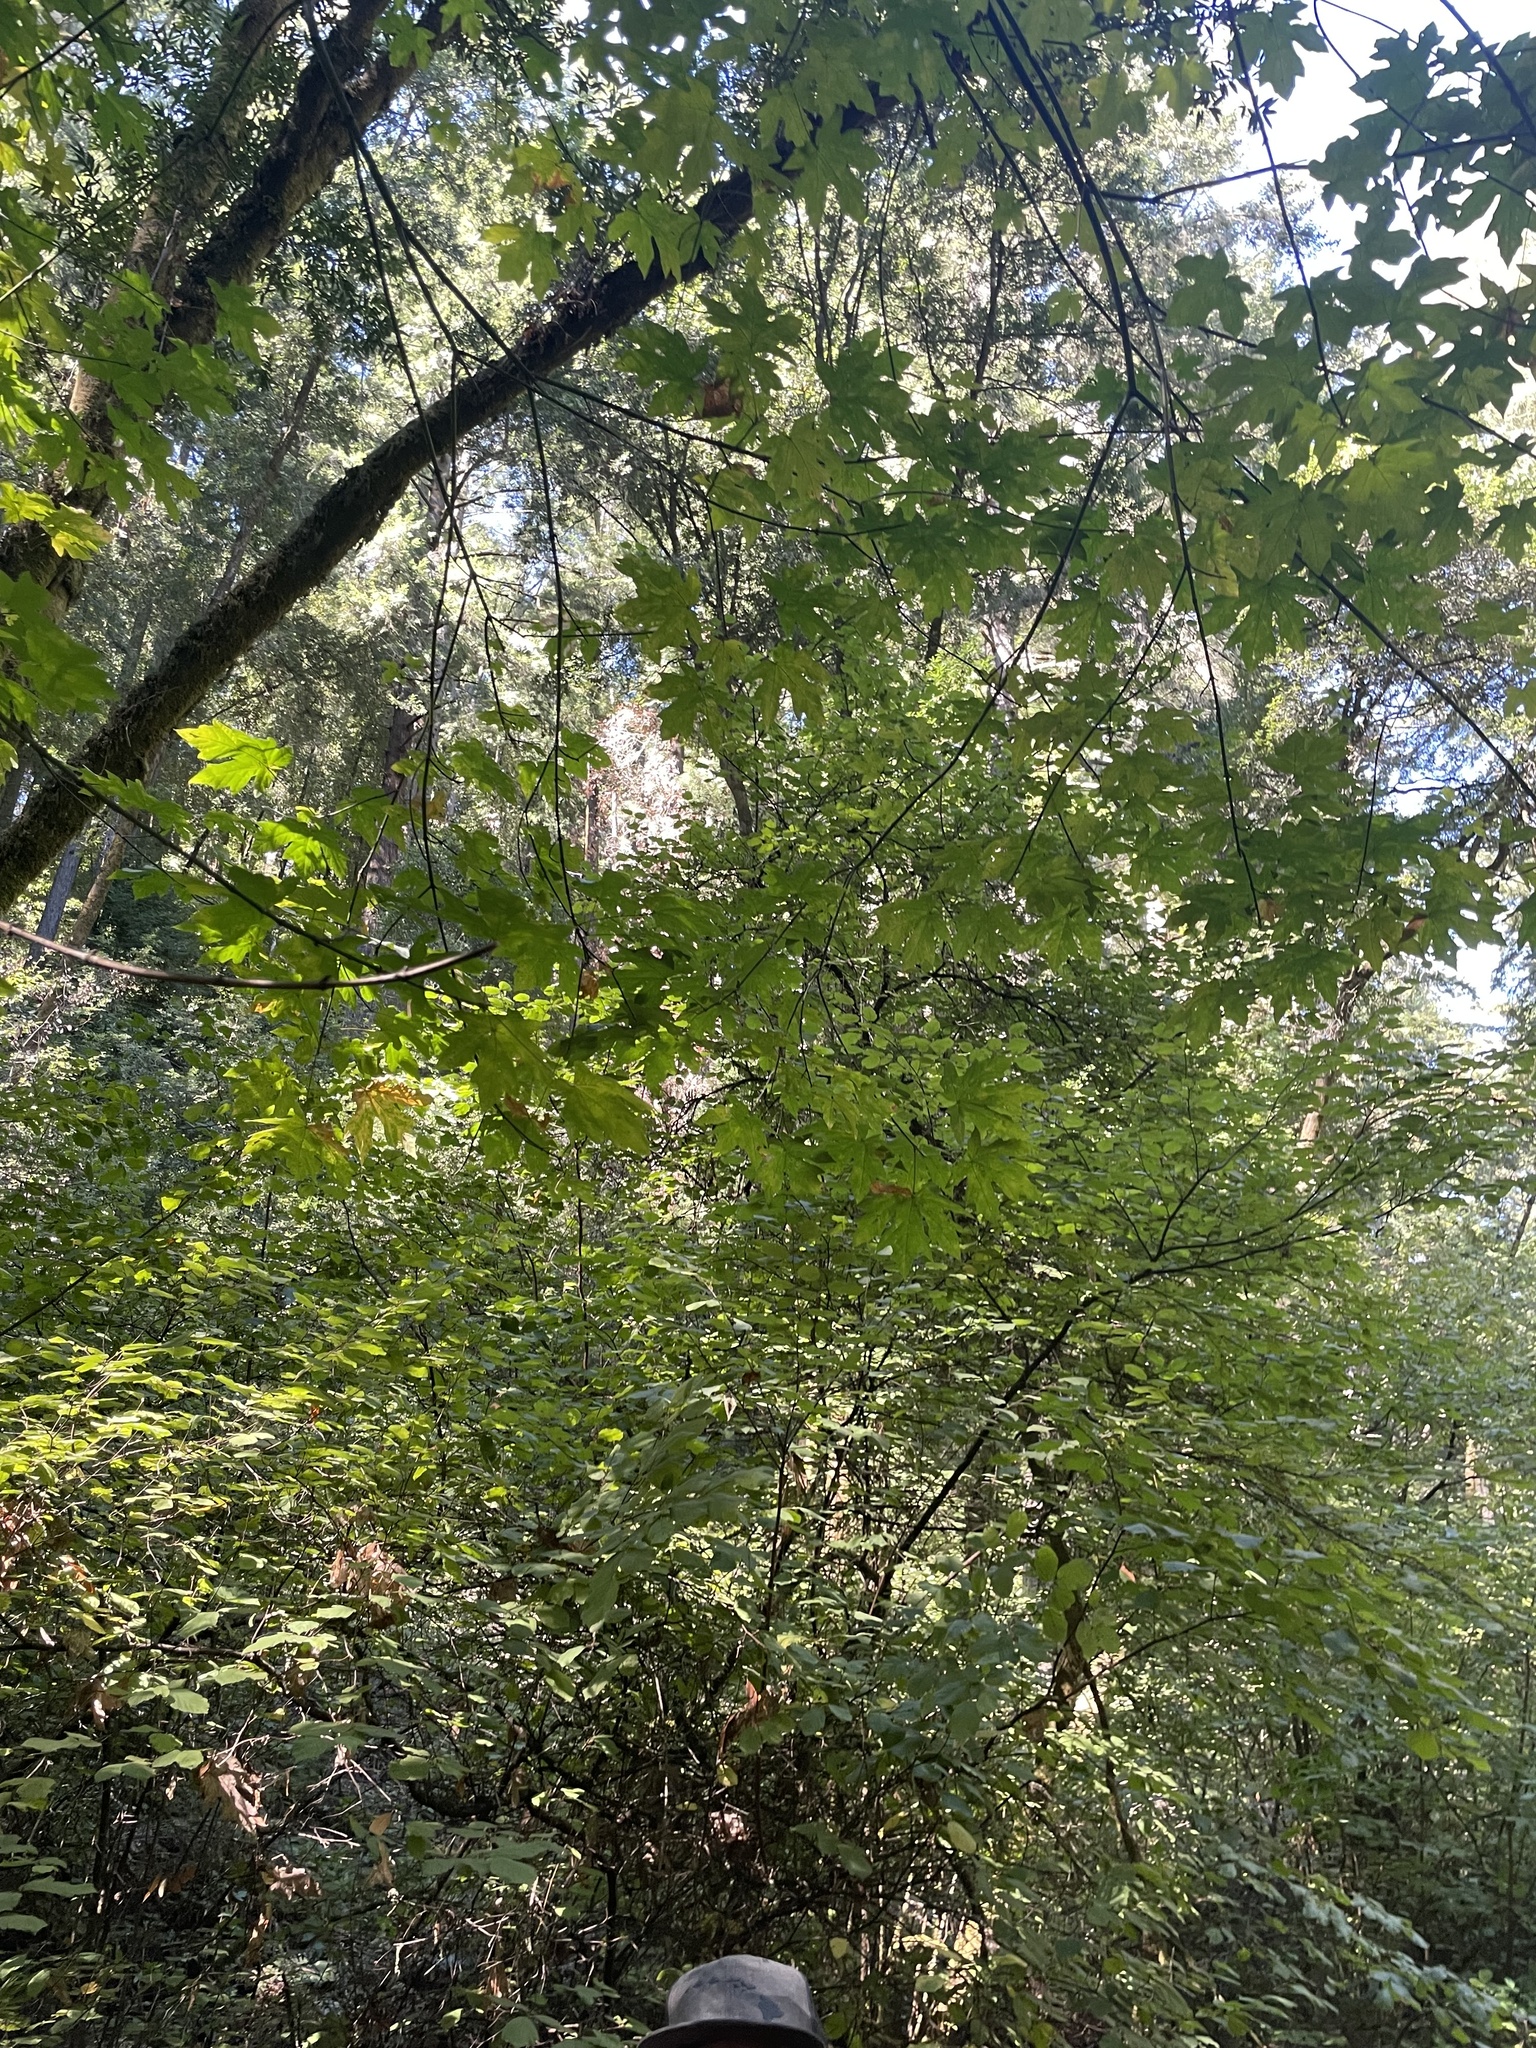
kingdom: Plantae
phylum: Tracheophyta
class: Magnoliopsida
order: Sapindales
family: Sapindaceae
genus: Acer
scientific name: Acer macrophyllum
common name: Oregon maple
